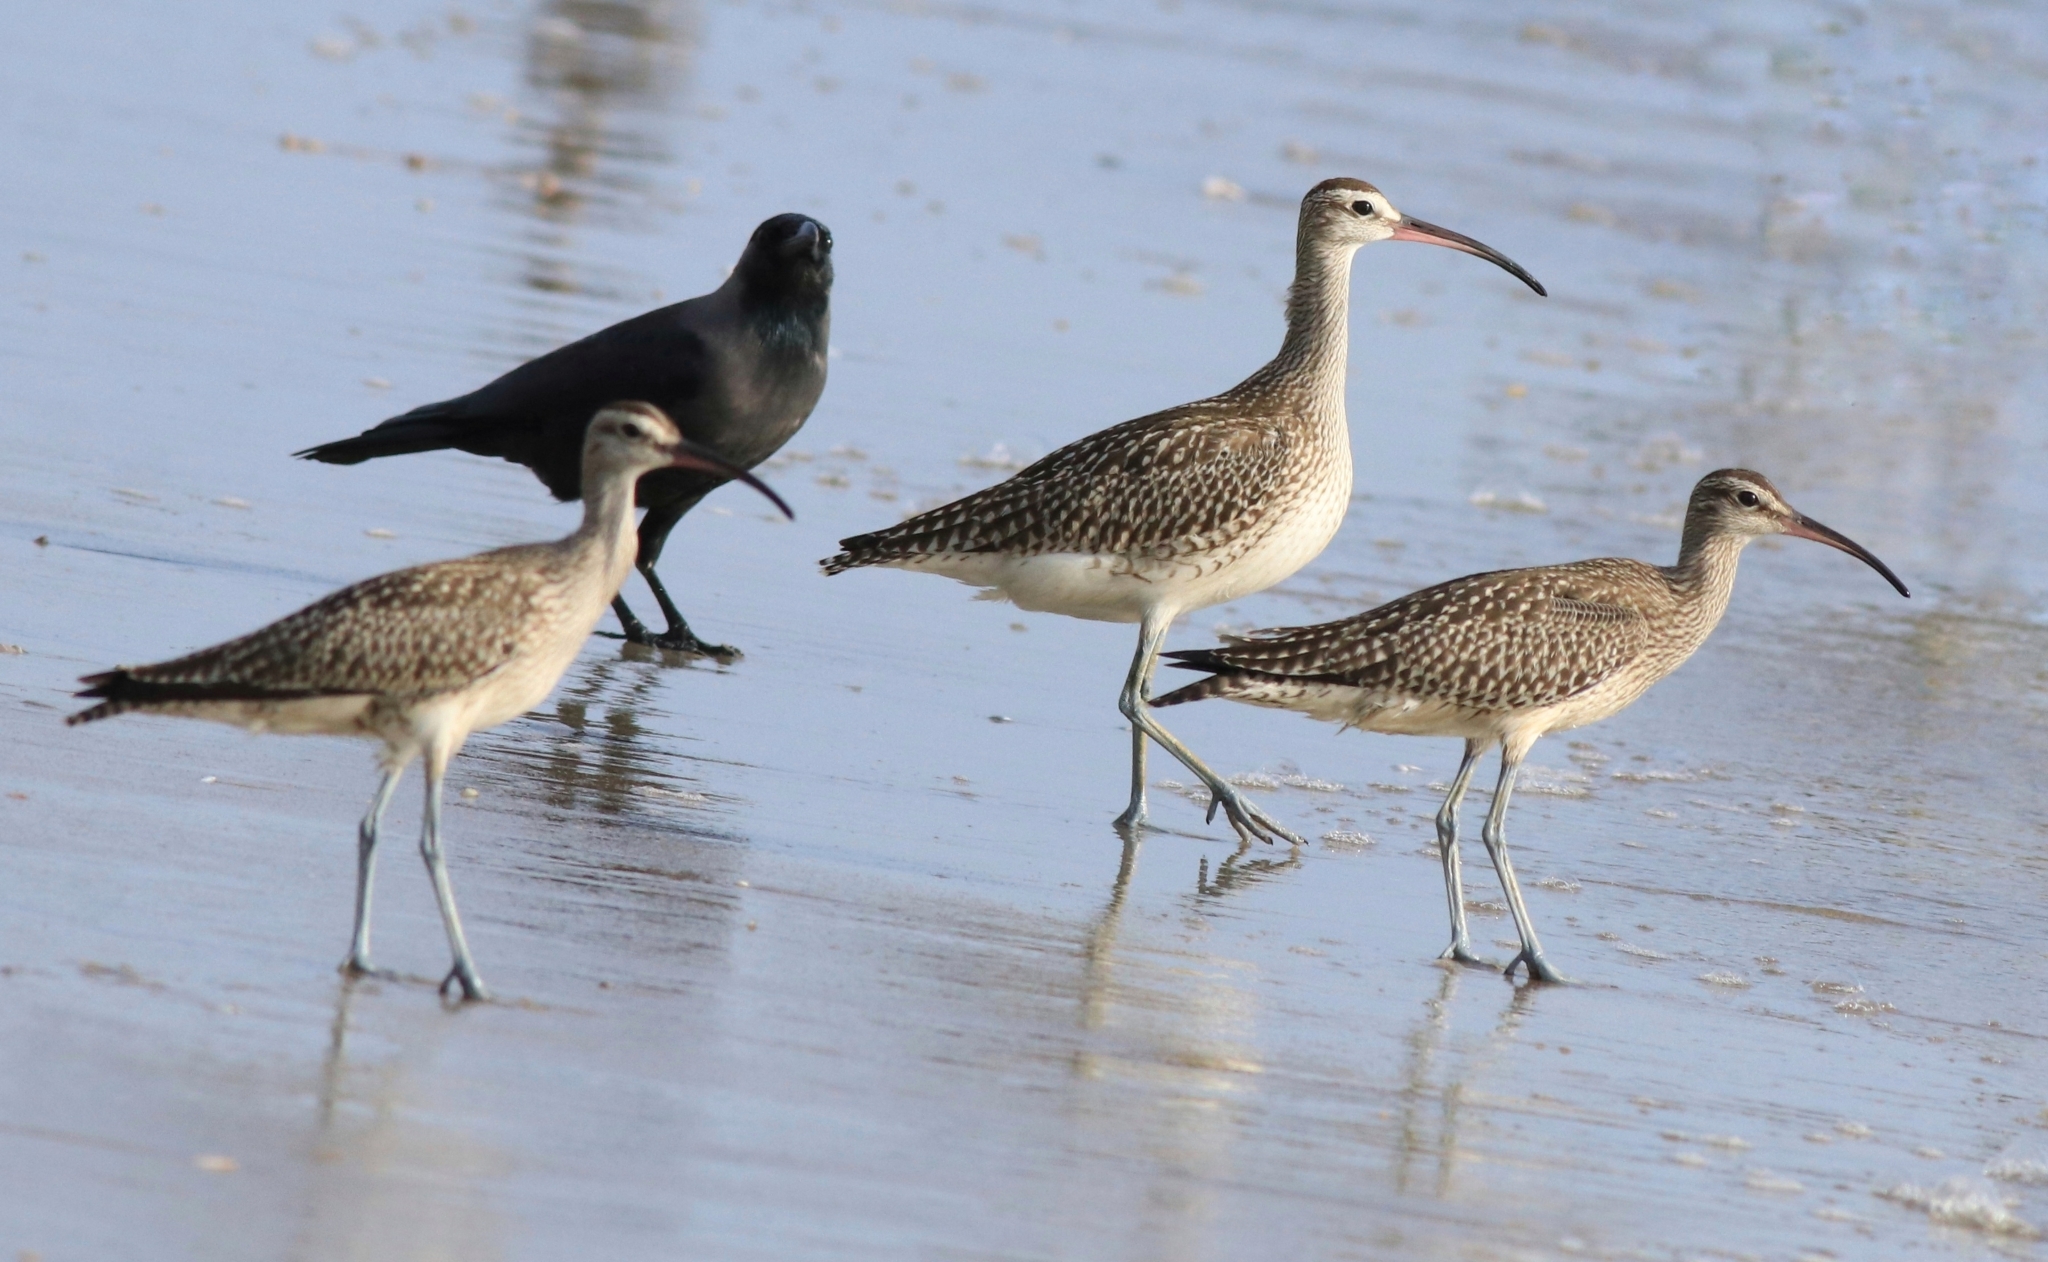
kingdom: Animalia
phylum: Chordata
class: Aves
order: Passeriformes
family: Corvidae
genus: Corvus
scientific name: Corvus splendens
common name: House crow
